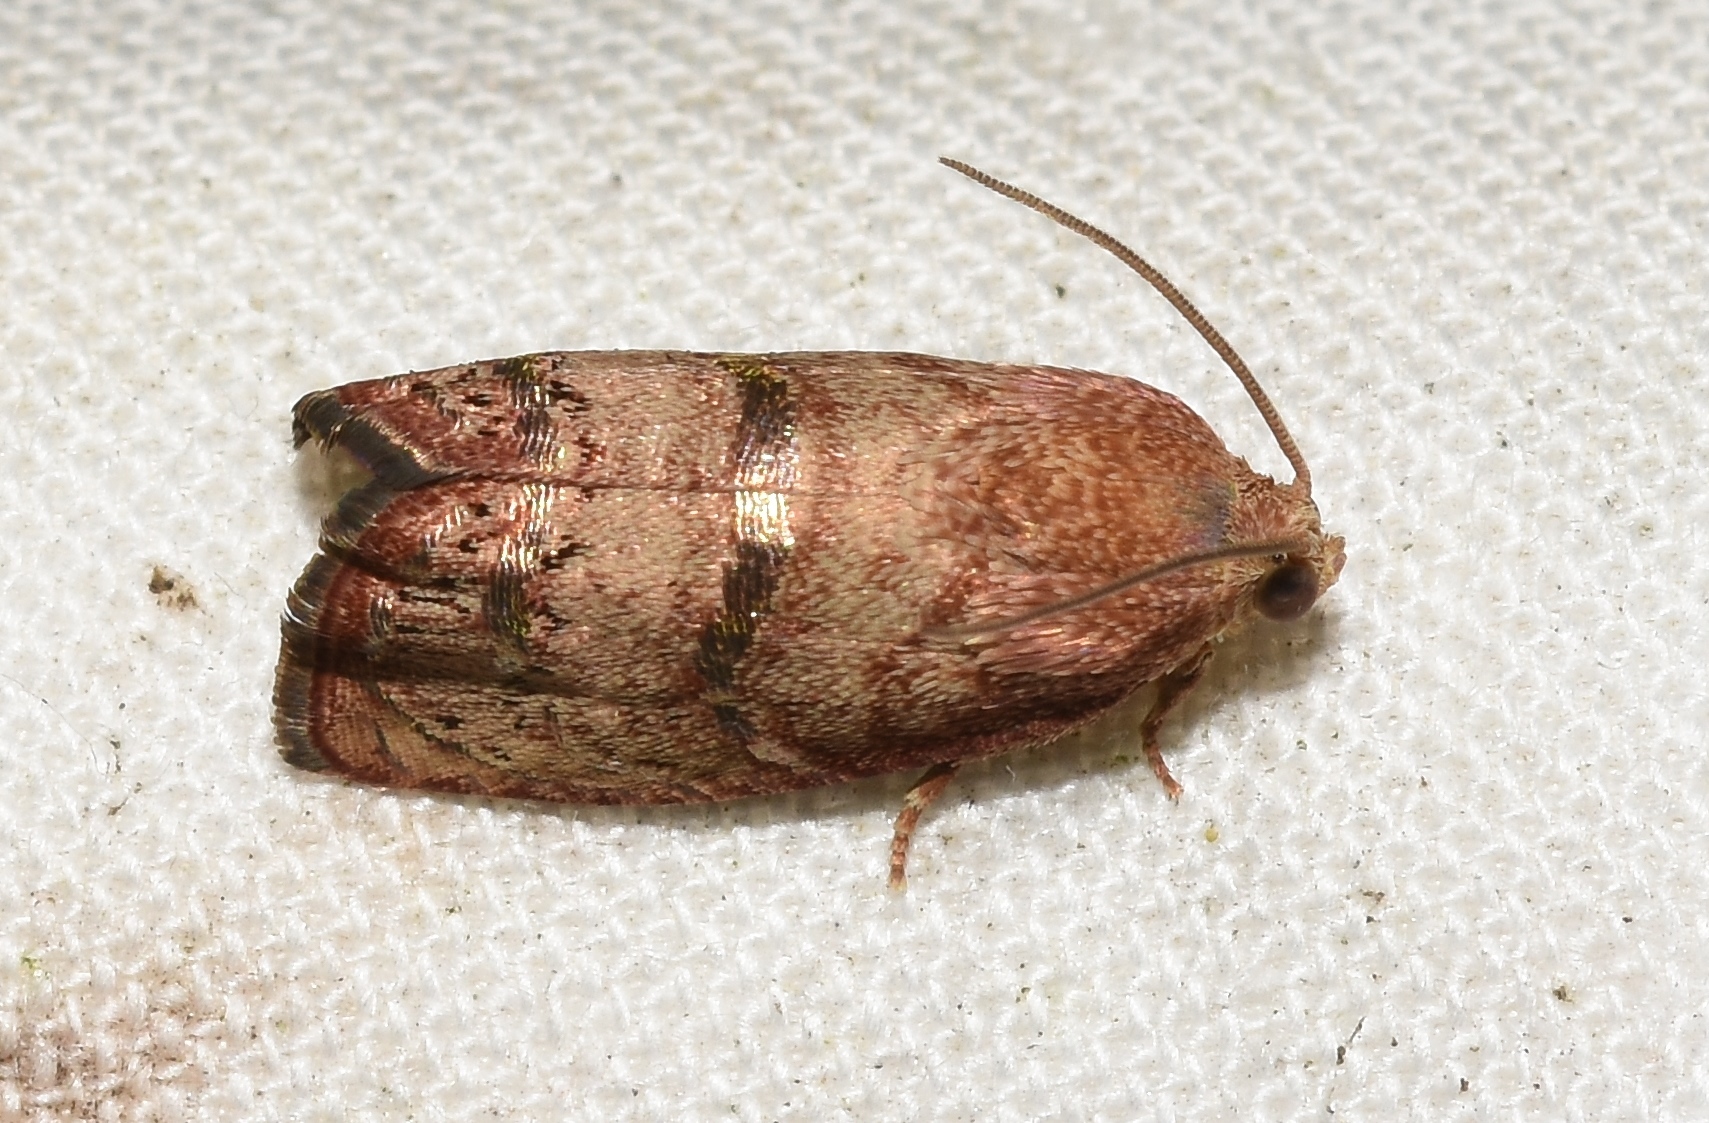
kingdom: Animalia
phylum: Arthropoda
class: Insecta
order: Lepidoptera
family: Tortricidae
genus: Cydia
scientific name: Cydia latiferreana
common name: Filbertworm moth
